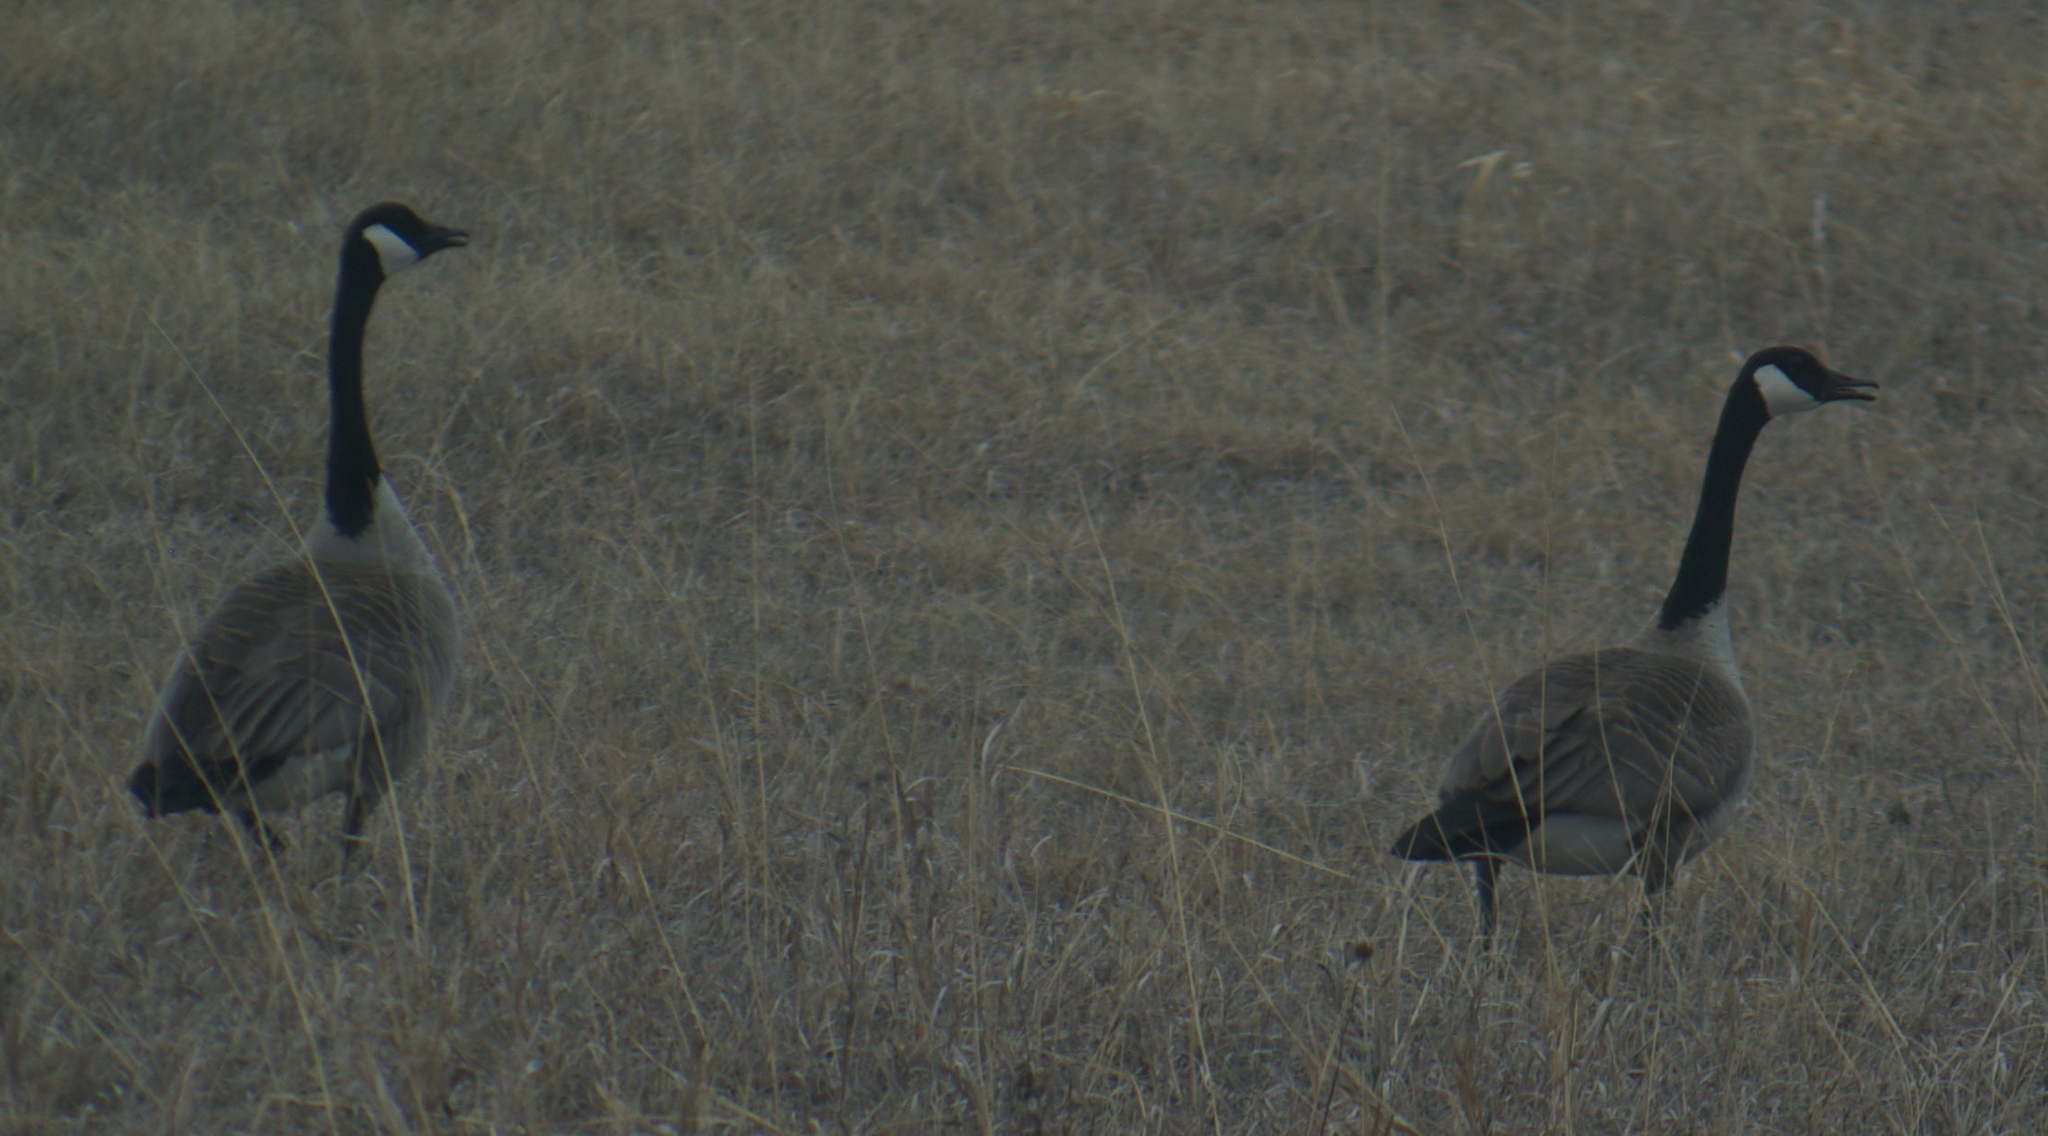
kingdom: Animalia
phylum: Chordata
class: Aves
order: Anseriformes
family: Anatidae
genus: Branta
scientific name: Branta canadensis
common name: Canada goose
